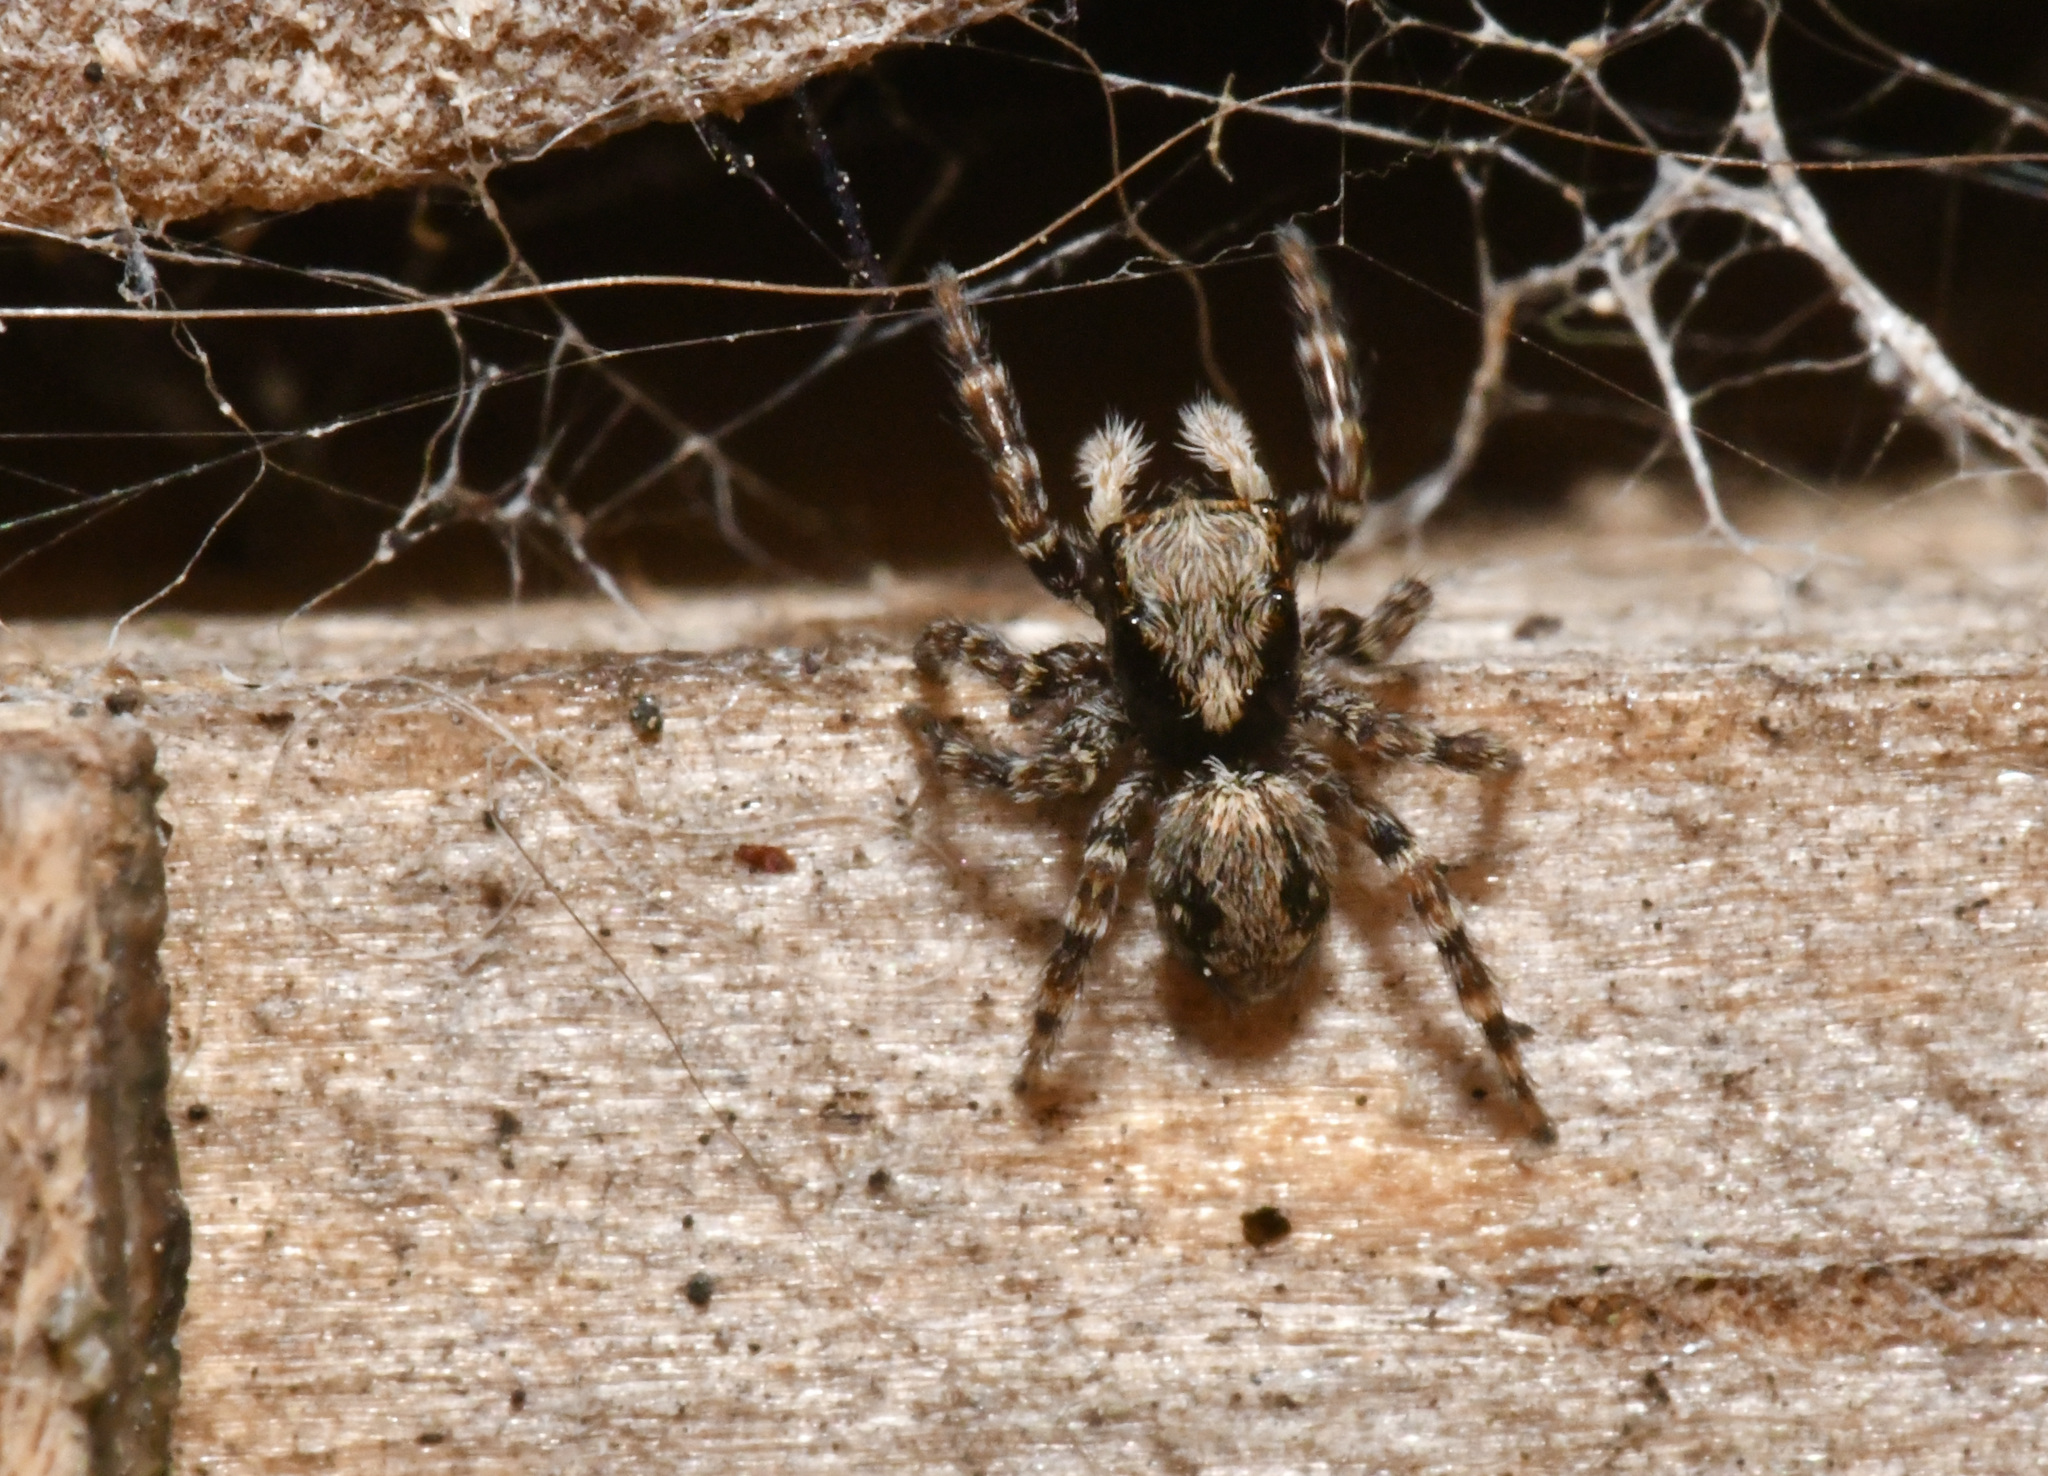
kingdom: Animalia
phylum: Arthropoda
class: Arachnida
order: Araneae
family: Salticidae
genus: Pseudeuophrys
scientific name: Pseudeuophrys lanigera
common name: Jumping spider
